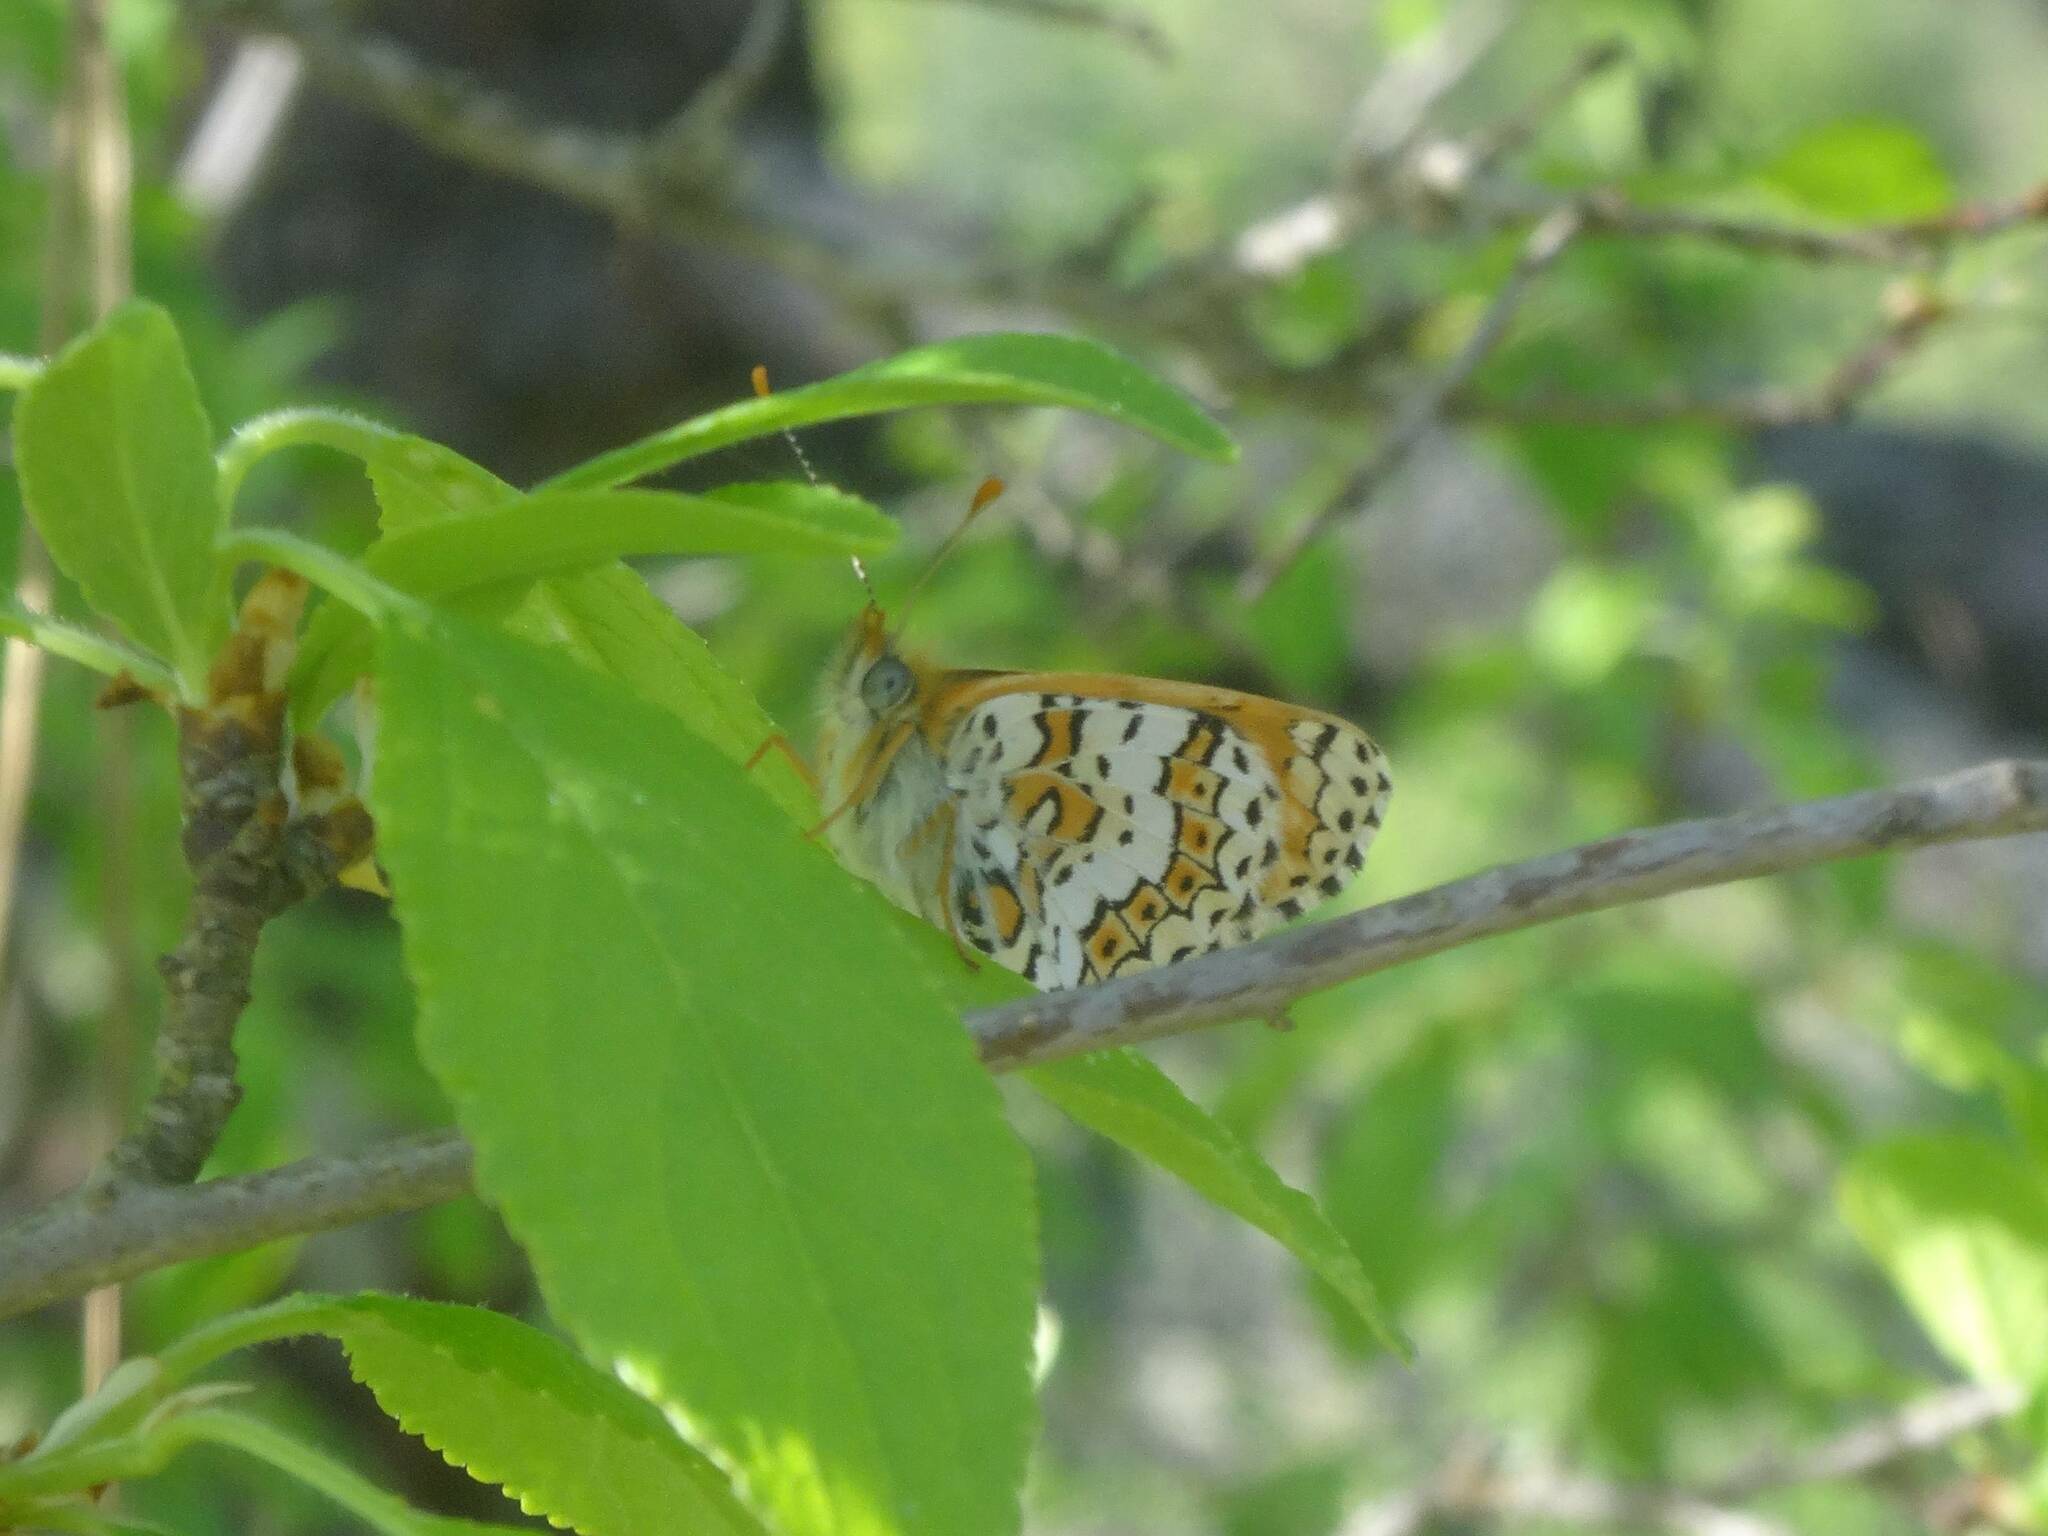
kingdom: Animalia
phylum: Arthropoda
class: Insecta
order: Lepidoptera
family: Nymphalidae
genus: Melitaea
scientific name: Melitaea cinxia
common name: Glanville fritillary
